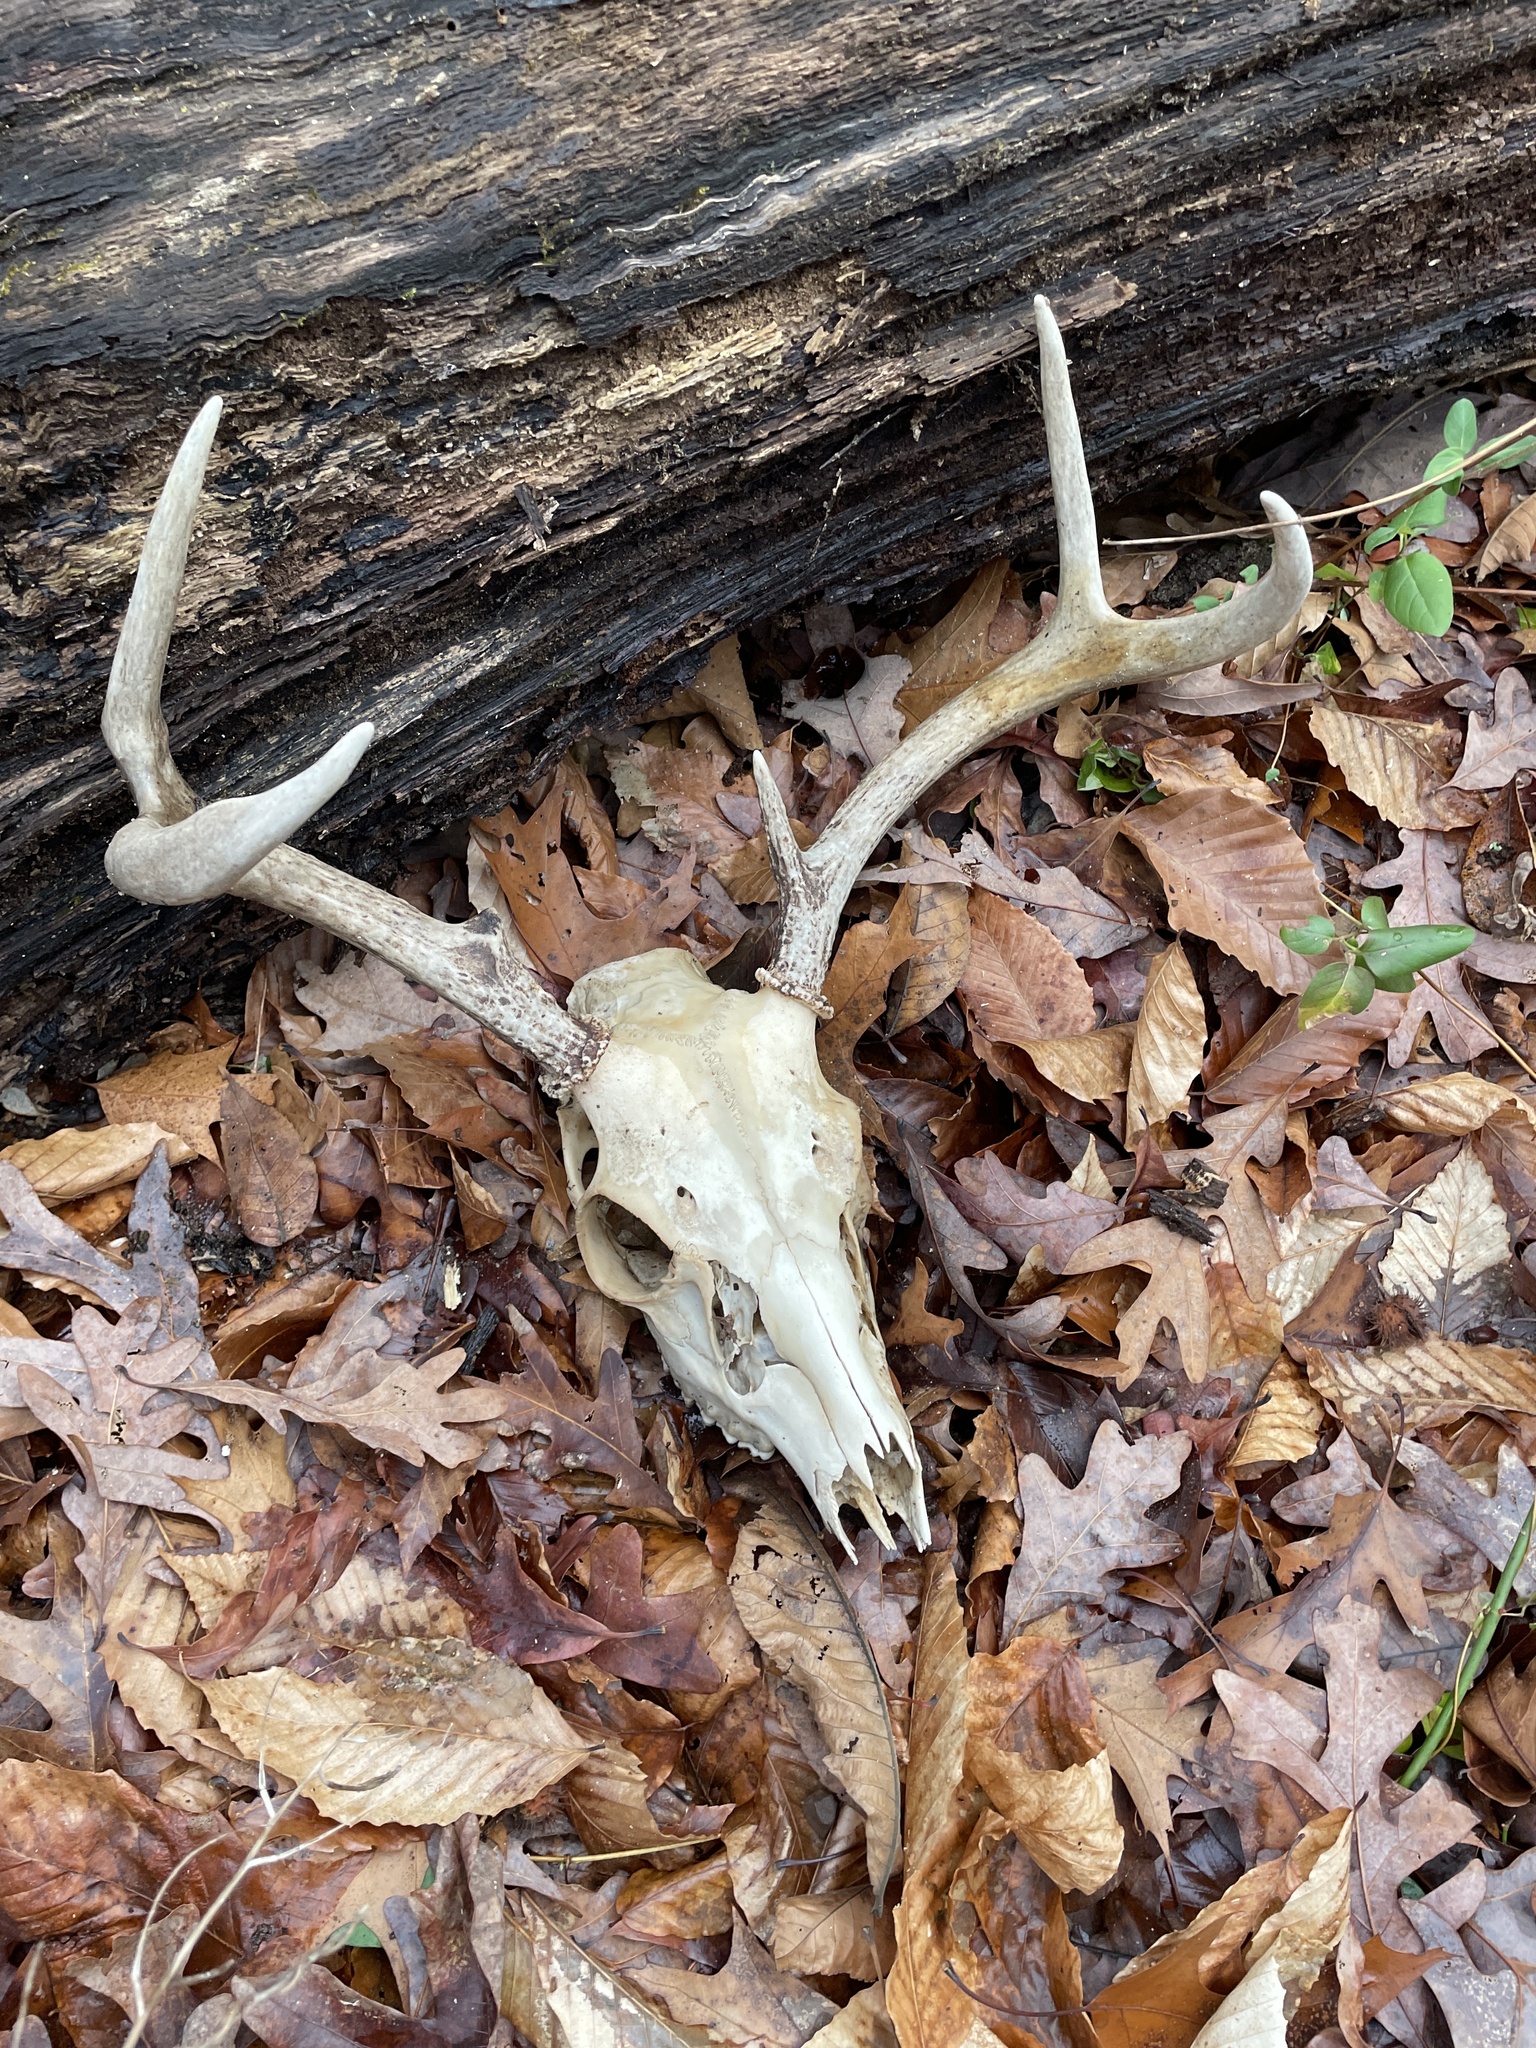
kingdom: Animalia
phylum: Chordata
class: Mammalia
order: Artiodactyla
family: Cervidae
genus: Odocoileus
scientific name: Odocoileus virginianus
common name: White-tailed deer
